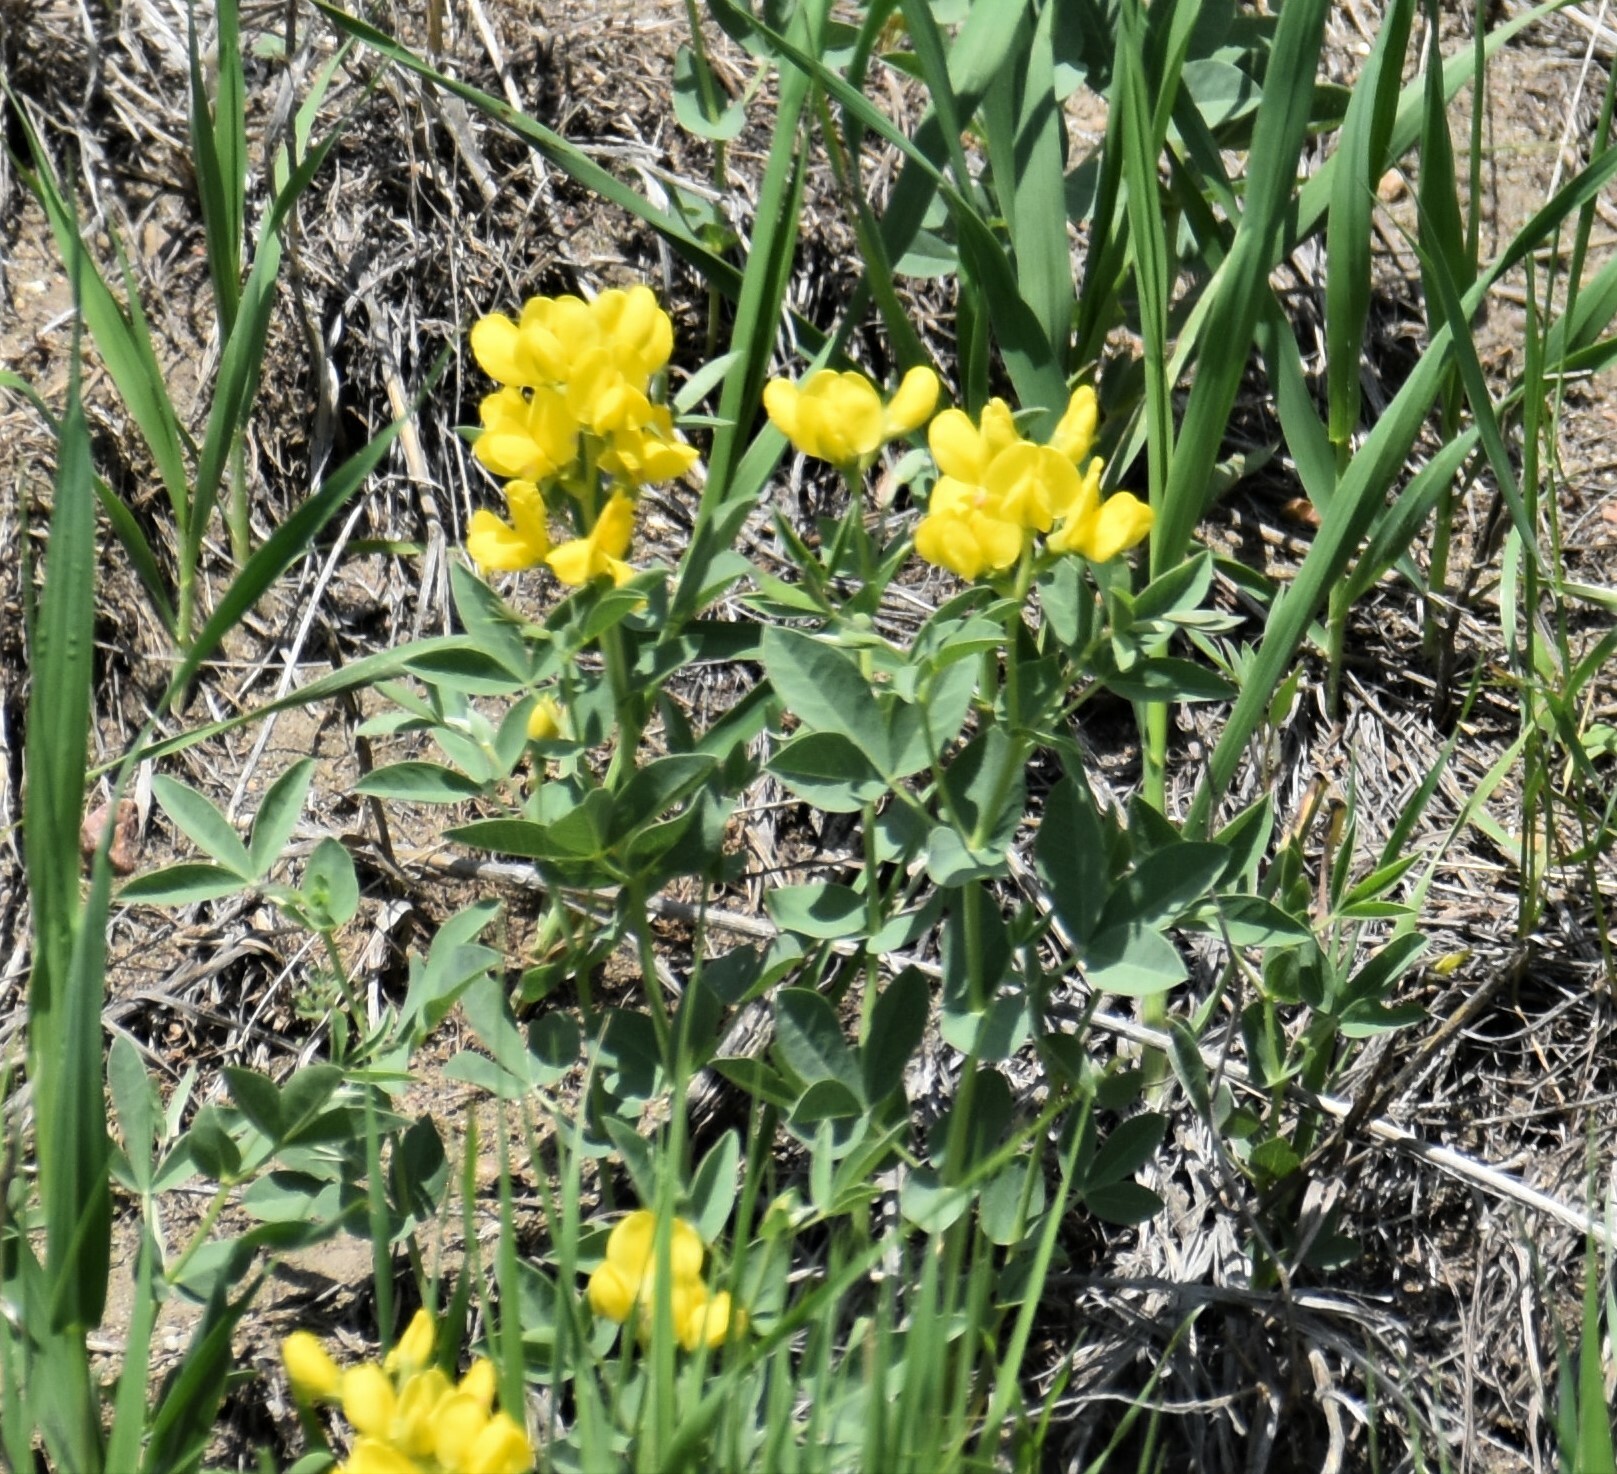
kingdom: Plantae
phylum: Tracheophyta
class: Magnoliopsida
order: Fabales
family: Fabaceae
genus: Thermopsis
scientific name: Thermopsis rhombifolia
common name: Circle-pod-pea
